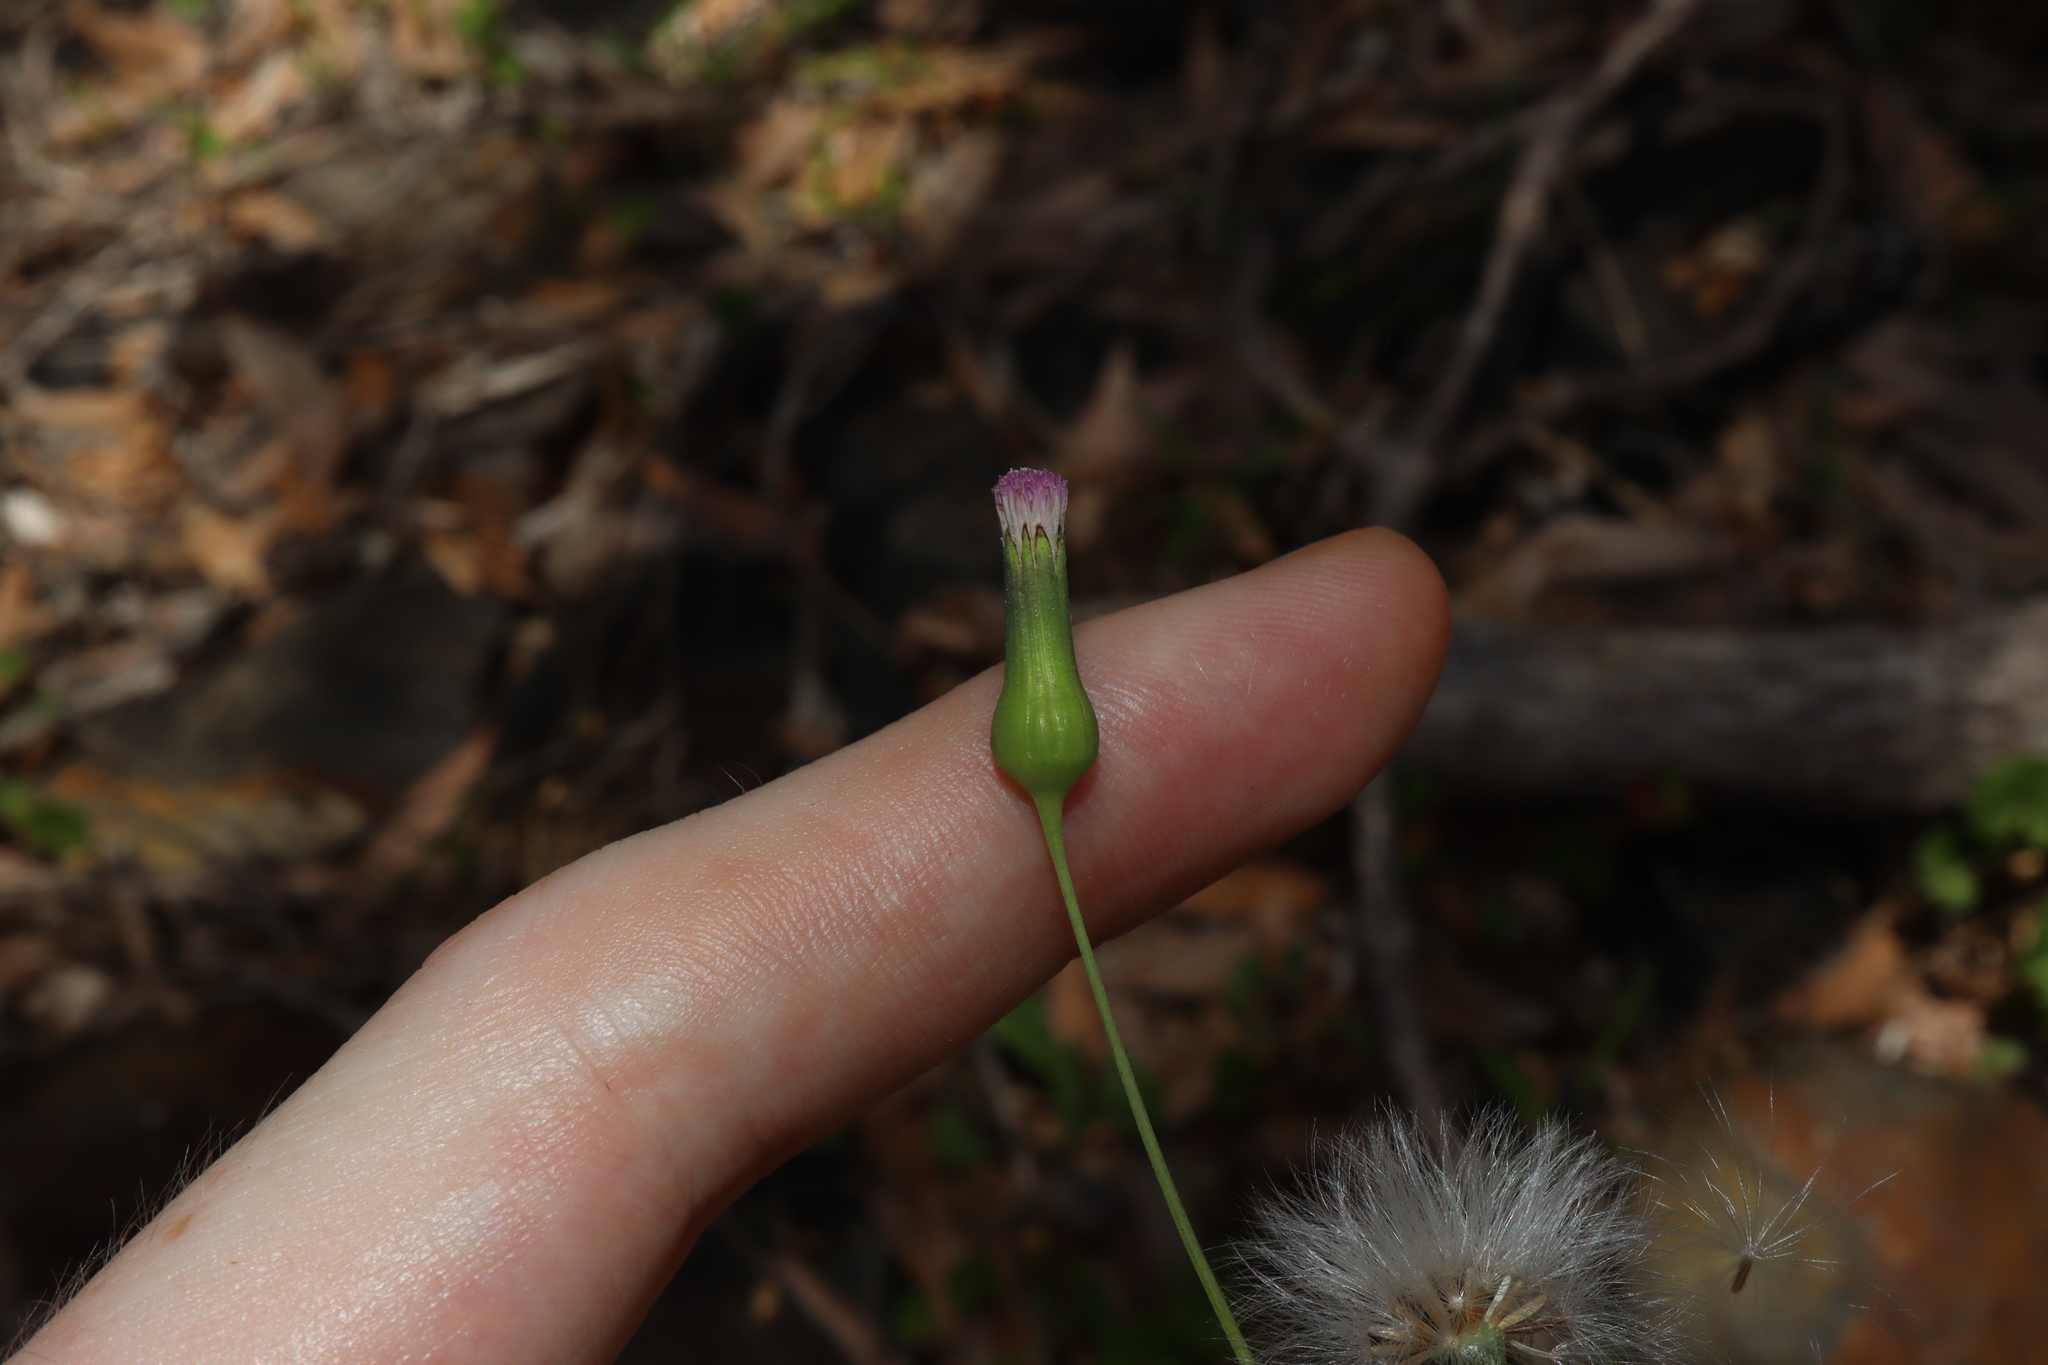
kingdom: Plantae
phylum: Tracheophyta
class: Magnoliopsida
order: Asterales
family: Asteraceae
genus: Emilia
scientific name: Emilia javanica
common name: Tassel-flower
